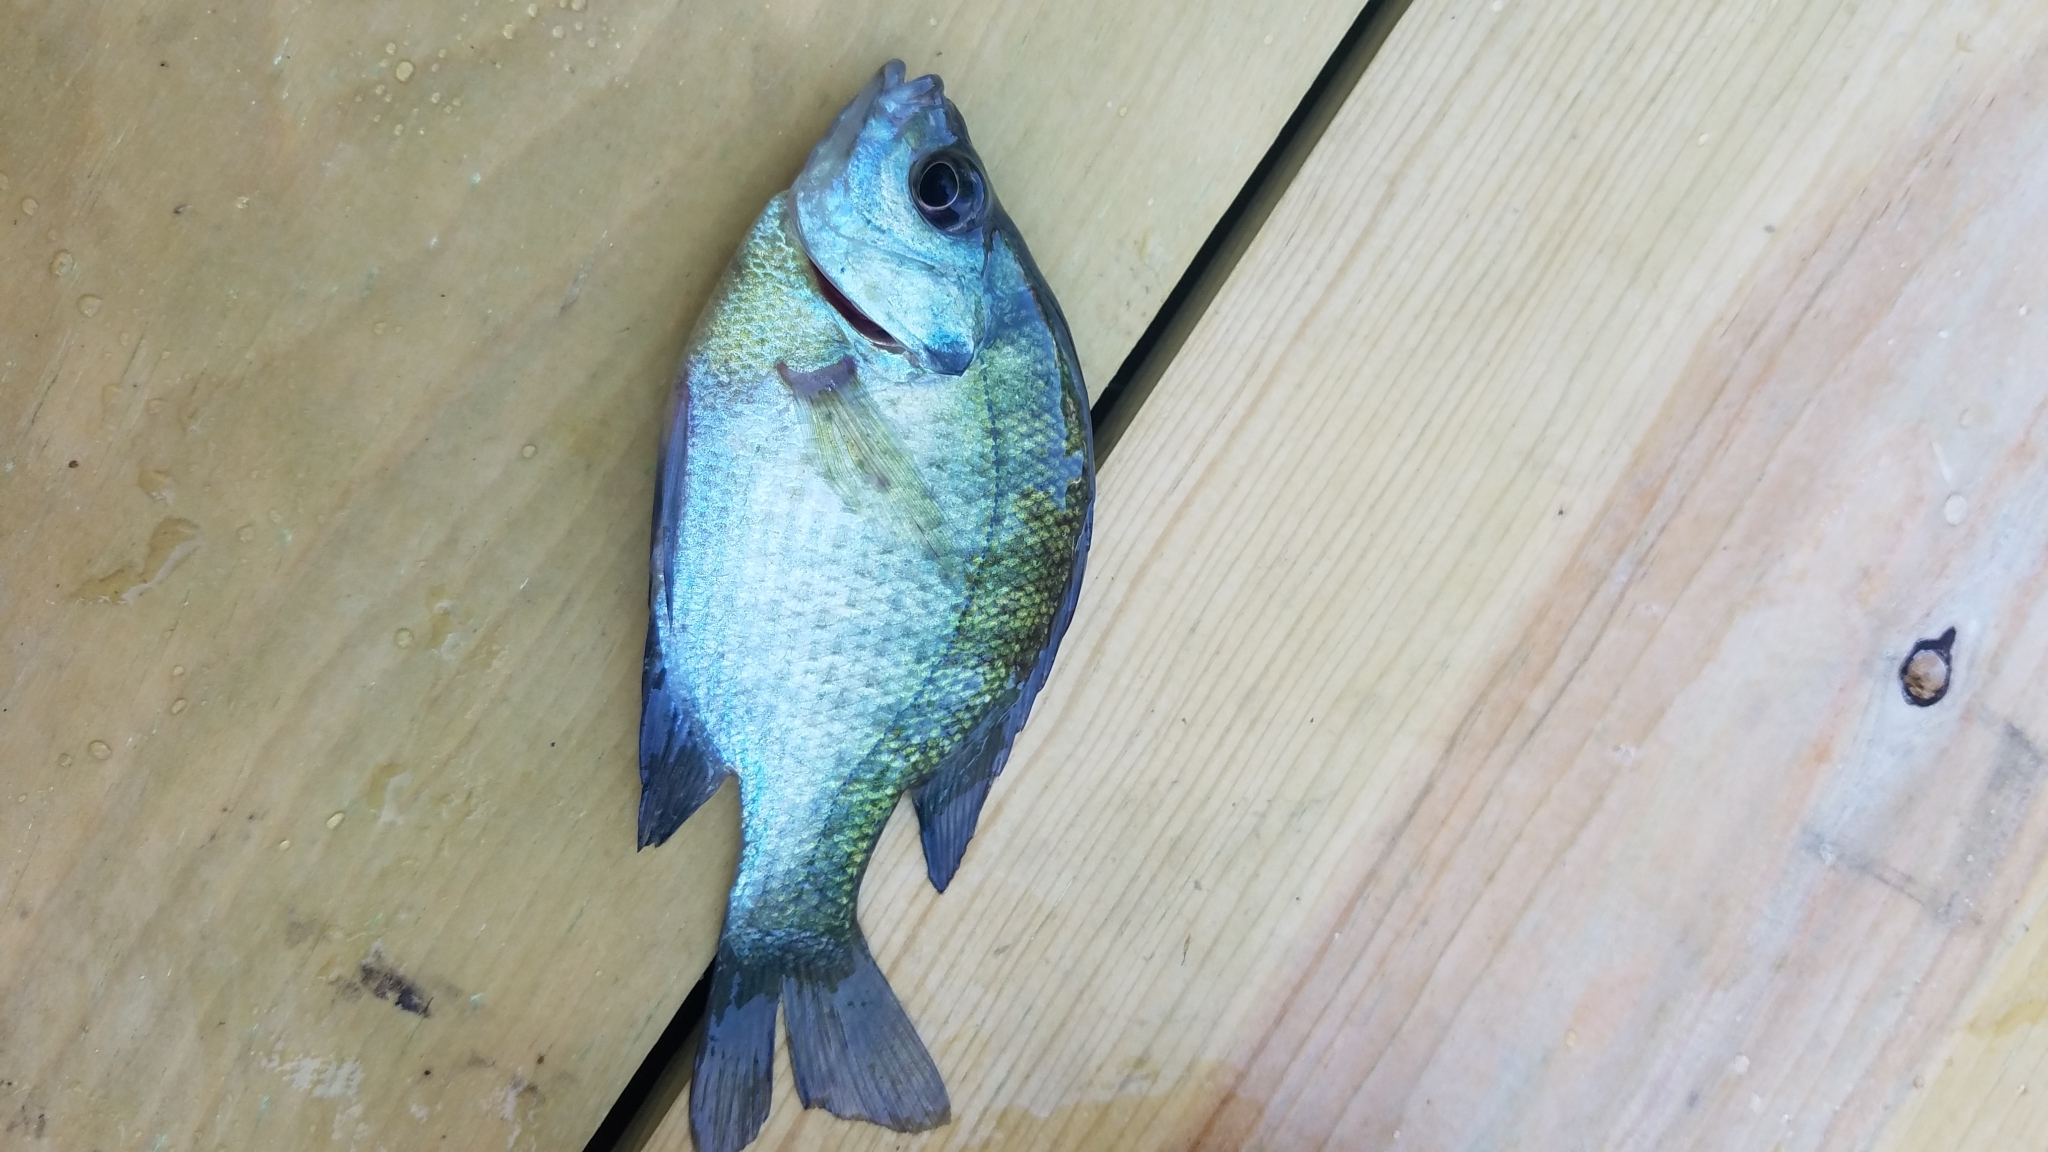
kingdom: Animalia
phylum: Chordata
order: Perciformes
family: Centrarchidae
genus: Lepomis
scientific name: Lepomis macrochirus
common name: Bluegill
